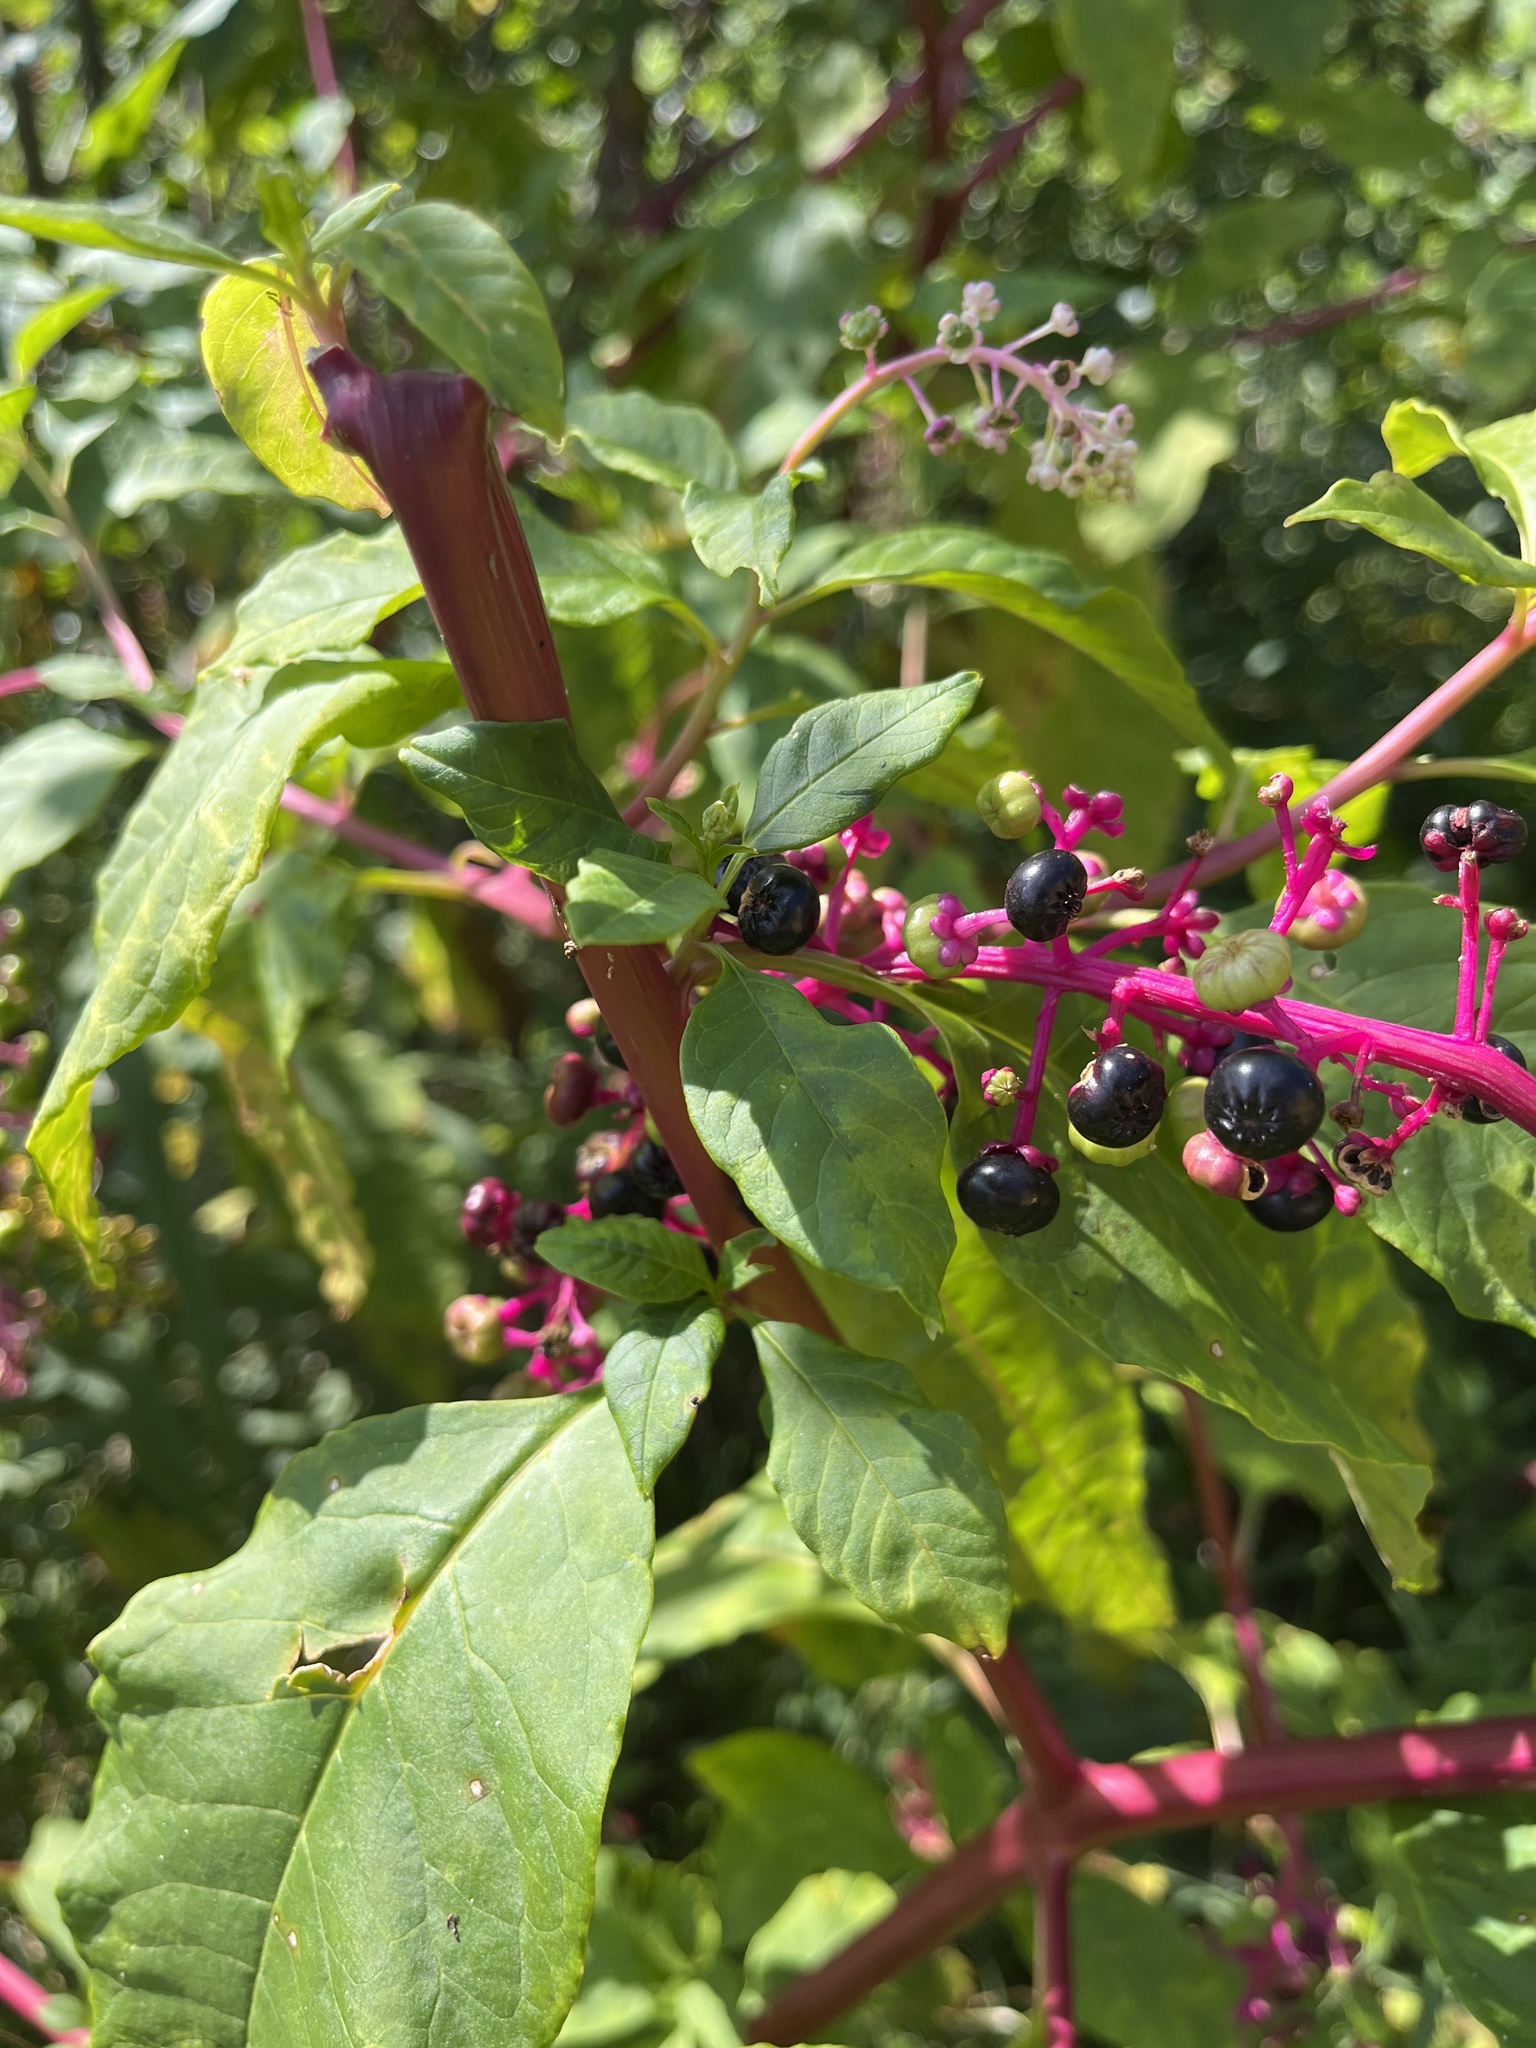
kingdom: Plantae
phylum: Tracheophyta
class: Magnoliopsida
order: Caryophyllales
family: Phytolaccaceae
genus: Phytolacca
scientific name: Phytolacca americana
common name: American pokeweed
